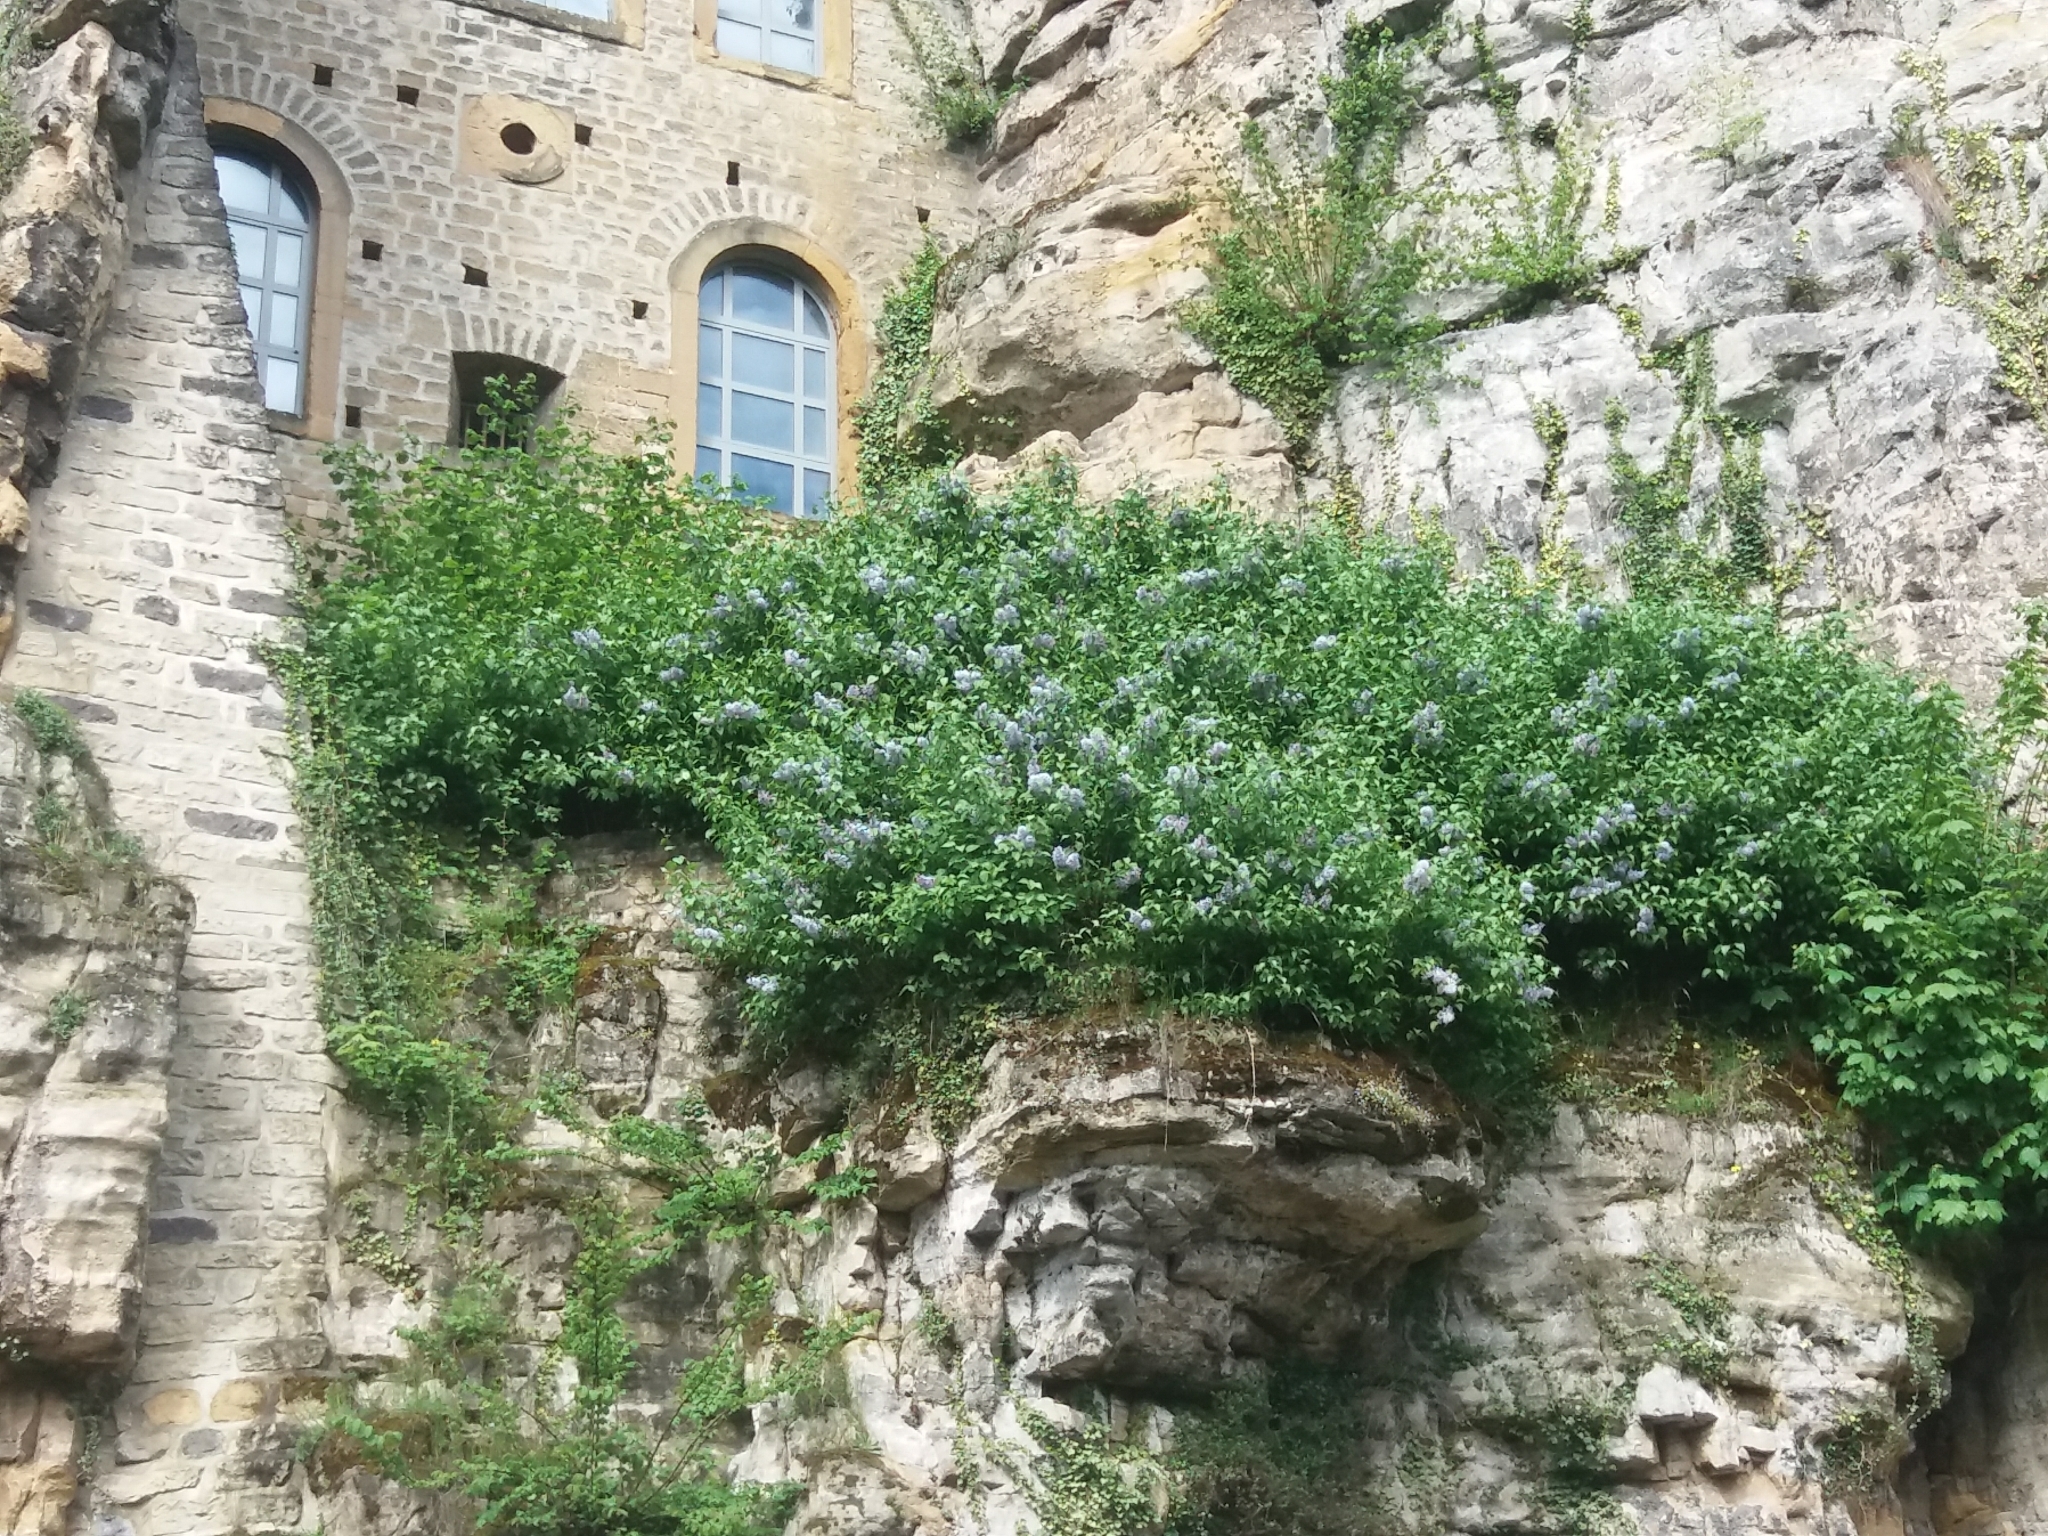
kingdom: Plantae
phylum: Tracheophyta
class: Magnoliopsida
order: Lamiales
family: Oleaceae
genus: Syringa
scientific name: Syringa vulgaris
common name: Common lilac
